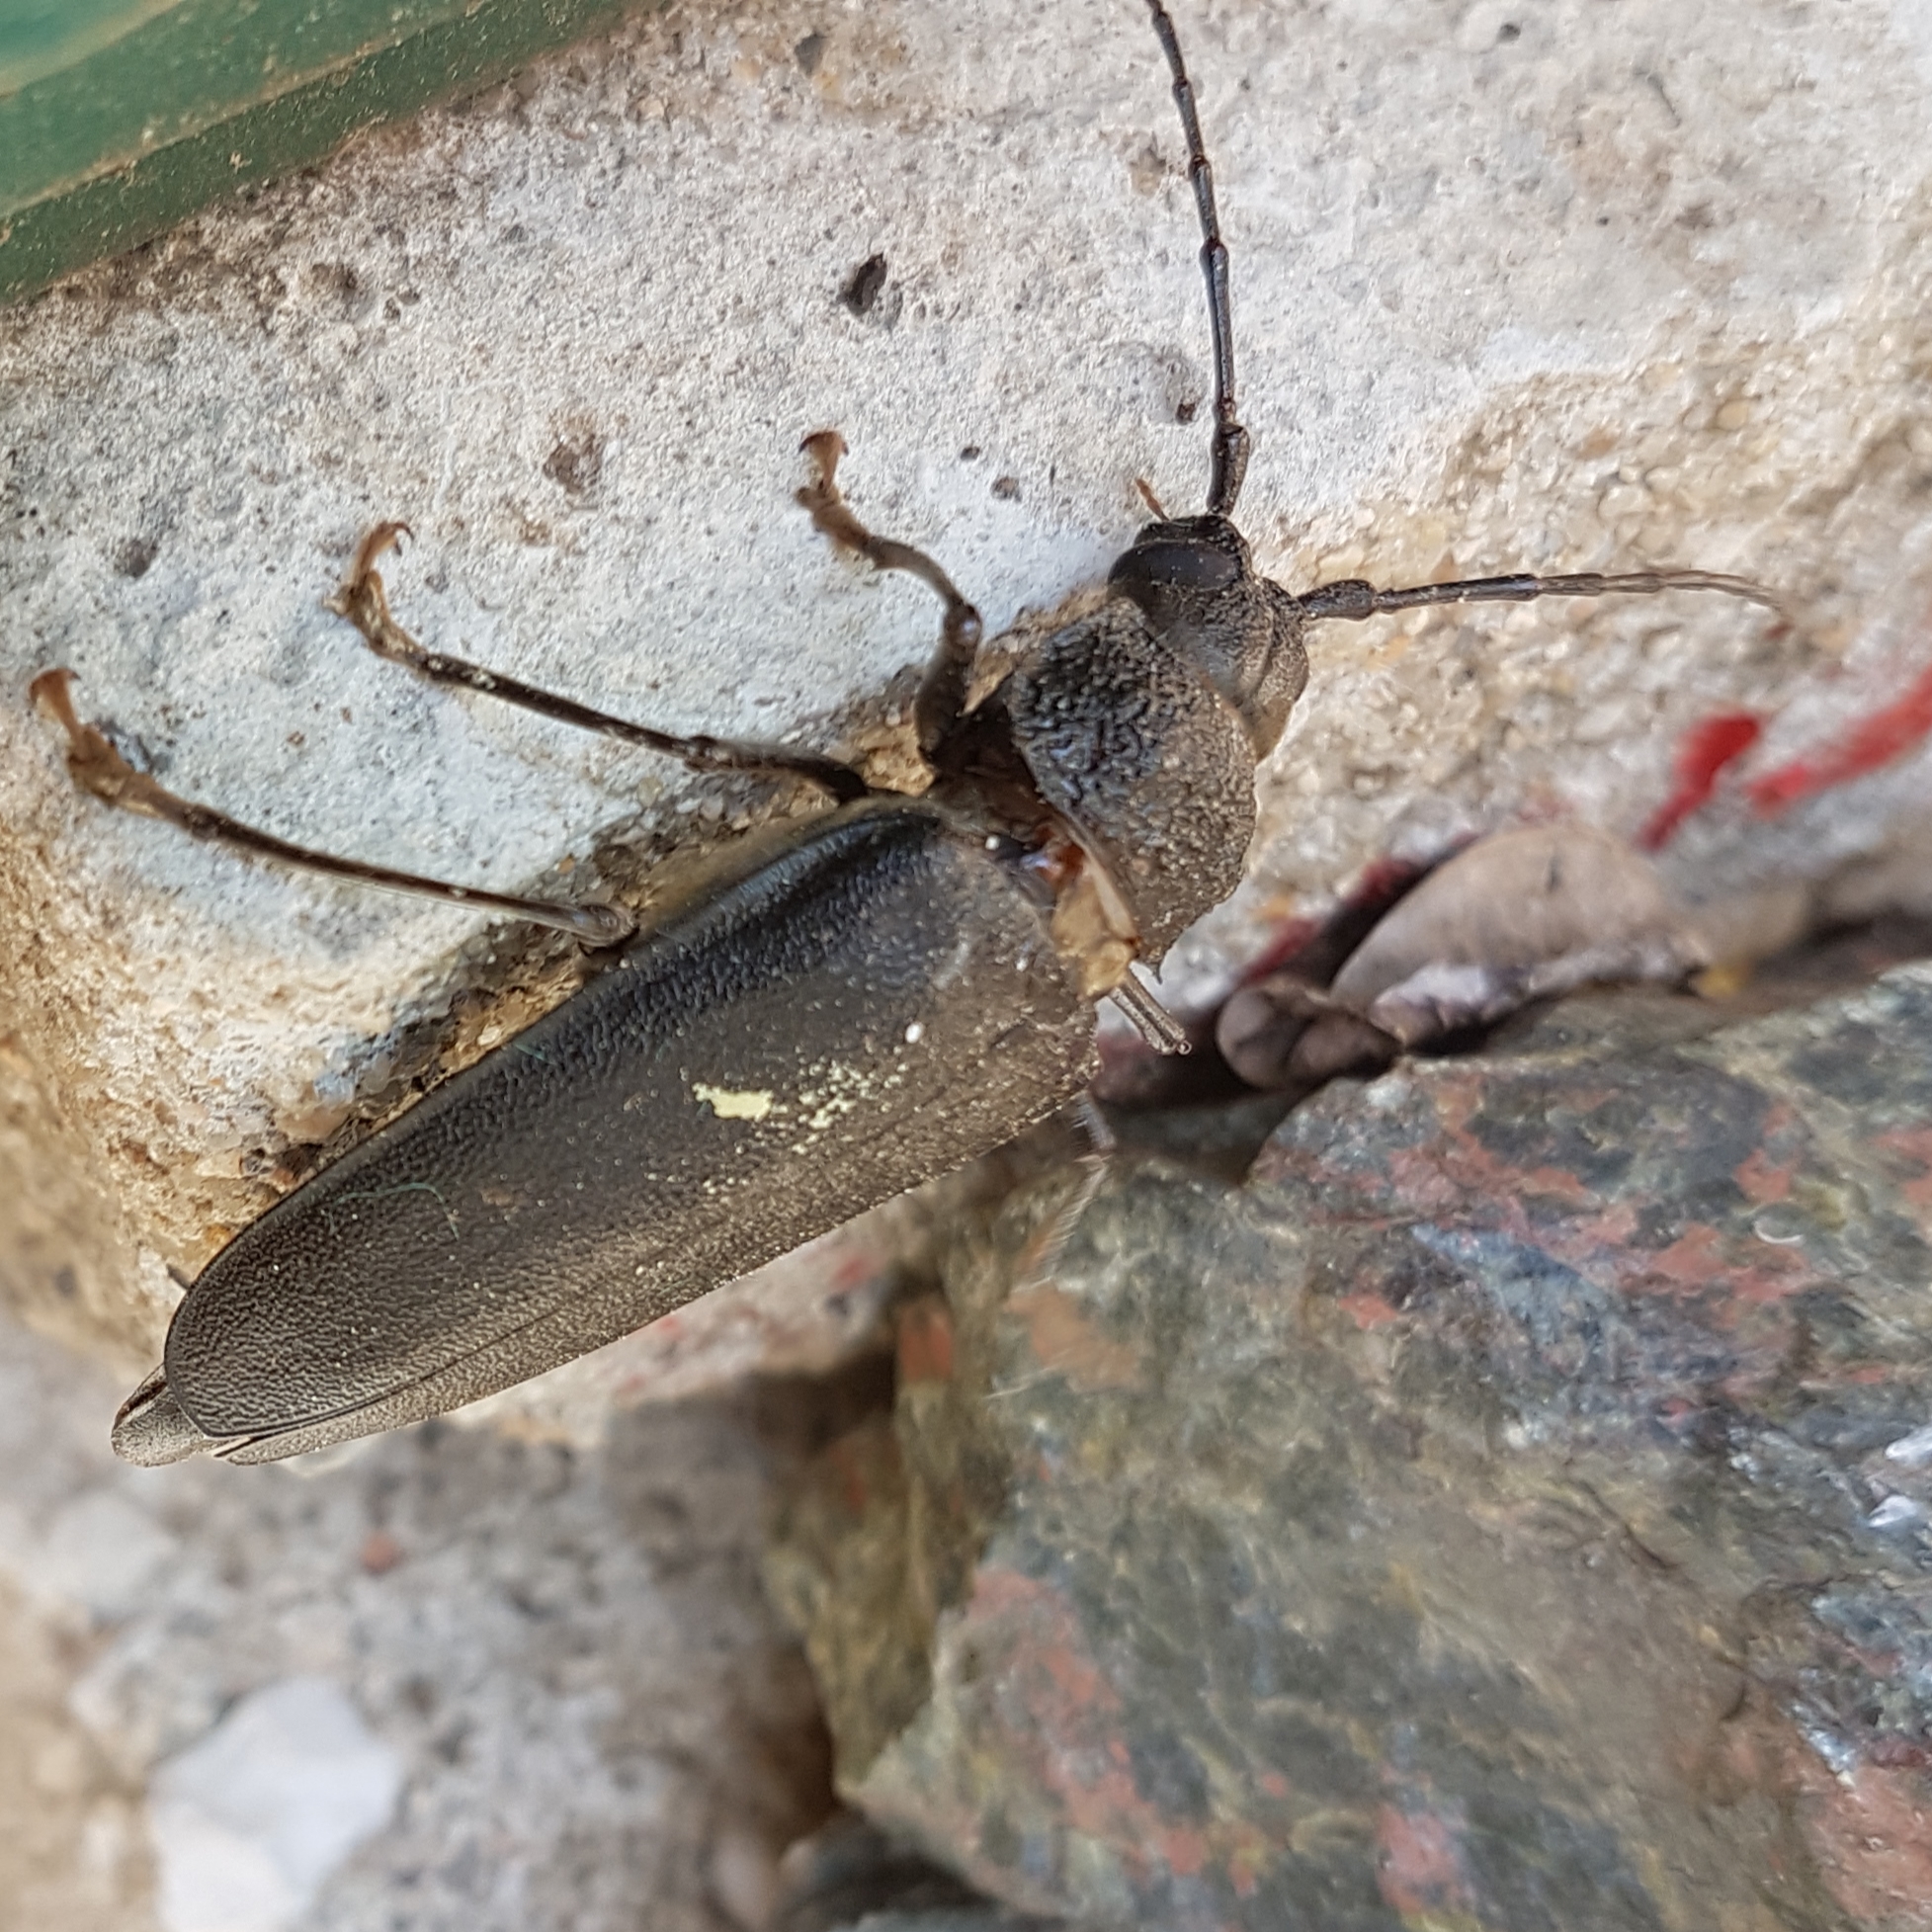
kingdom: Animalia
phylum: Arthropoda
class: Insecta
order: Coleoptera
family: Cerambycidae
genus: Ergates
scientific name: Ergates faber
